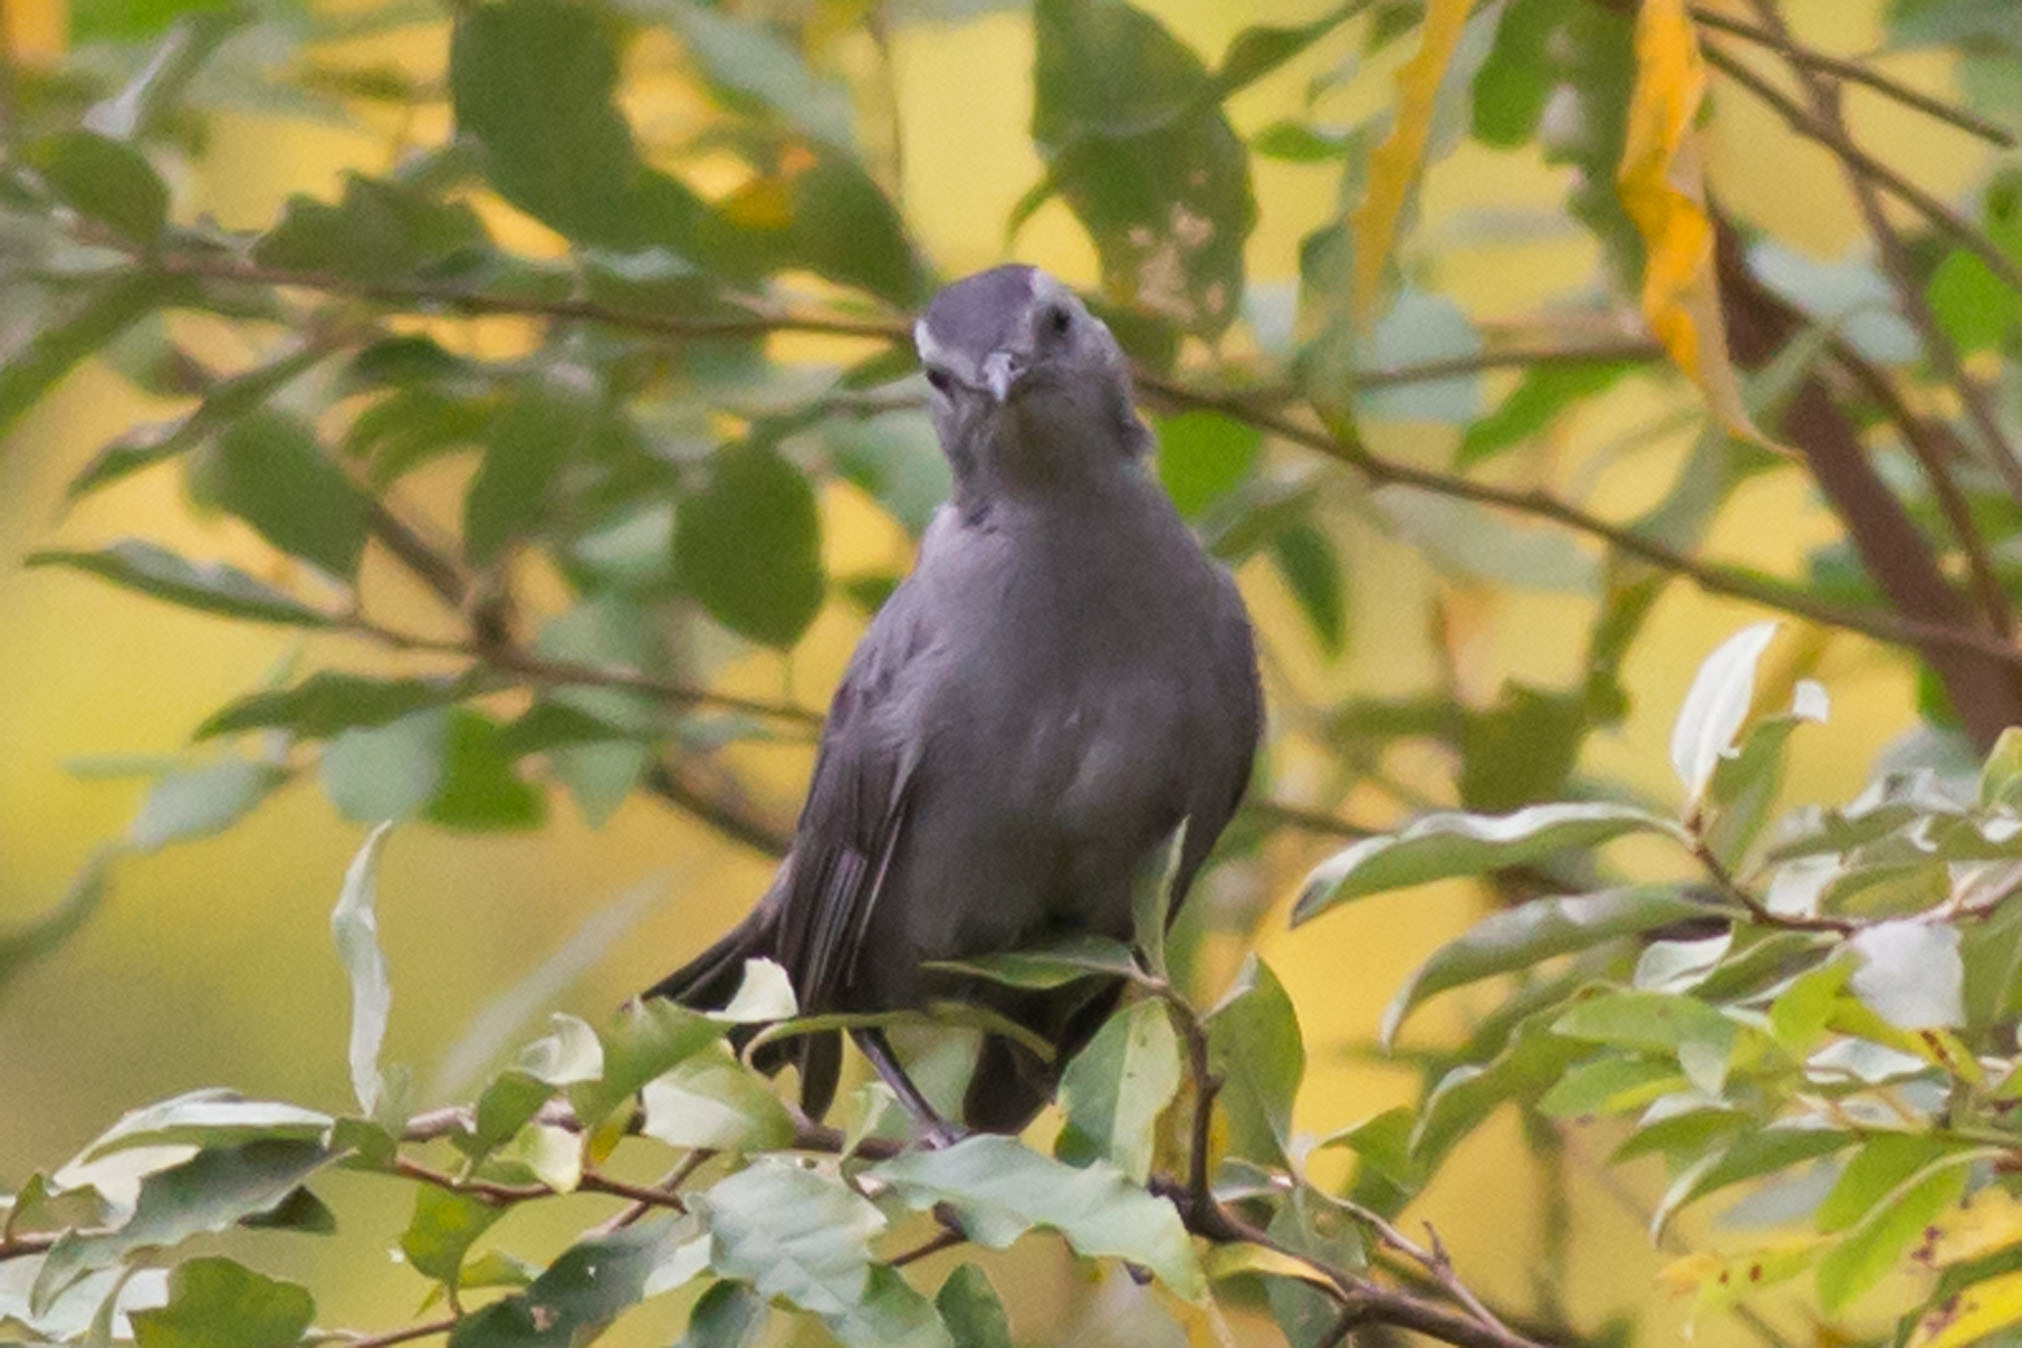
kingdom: Animalia
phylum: Chordata
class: Aves
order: Passeriformes
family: Mimidae
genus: Dumetella
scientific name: Dumetella carolinensis
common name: Gray catbird
